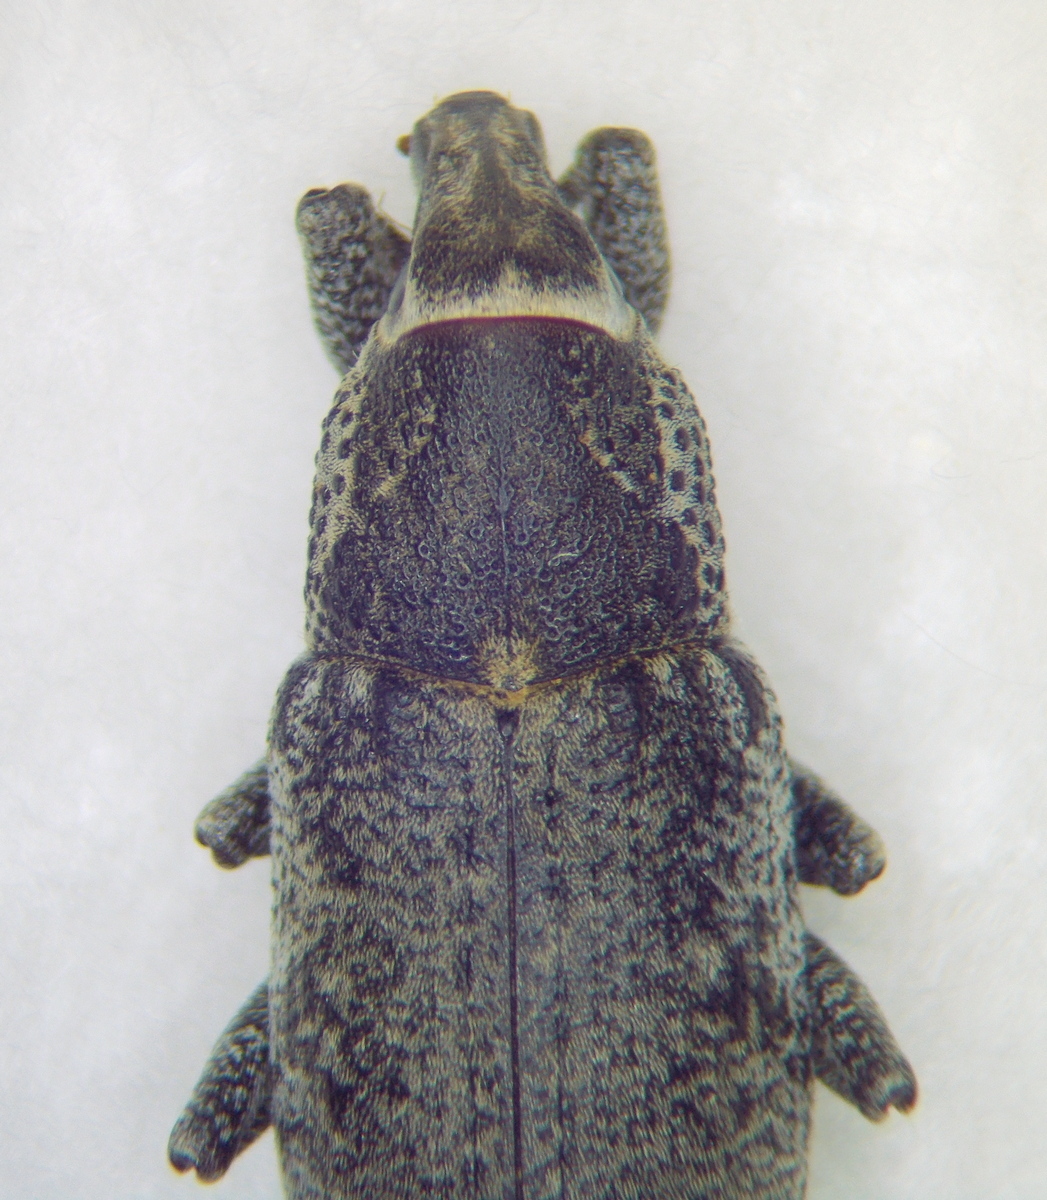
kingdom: Animalia
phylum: Arthropoda
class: Insecta
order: Coleoptera
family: Curculionidae
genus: Maximus
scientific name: Maximus strabus
